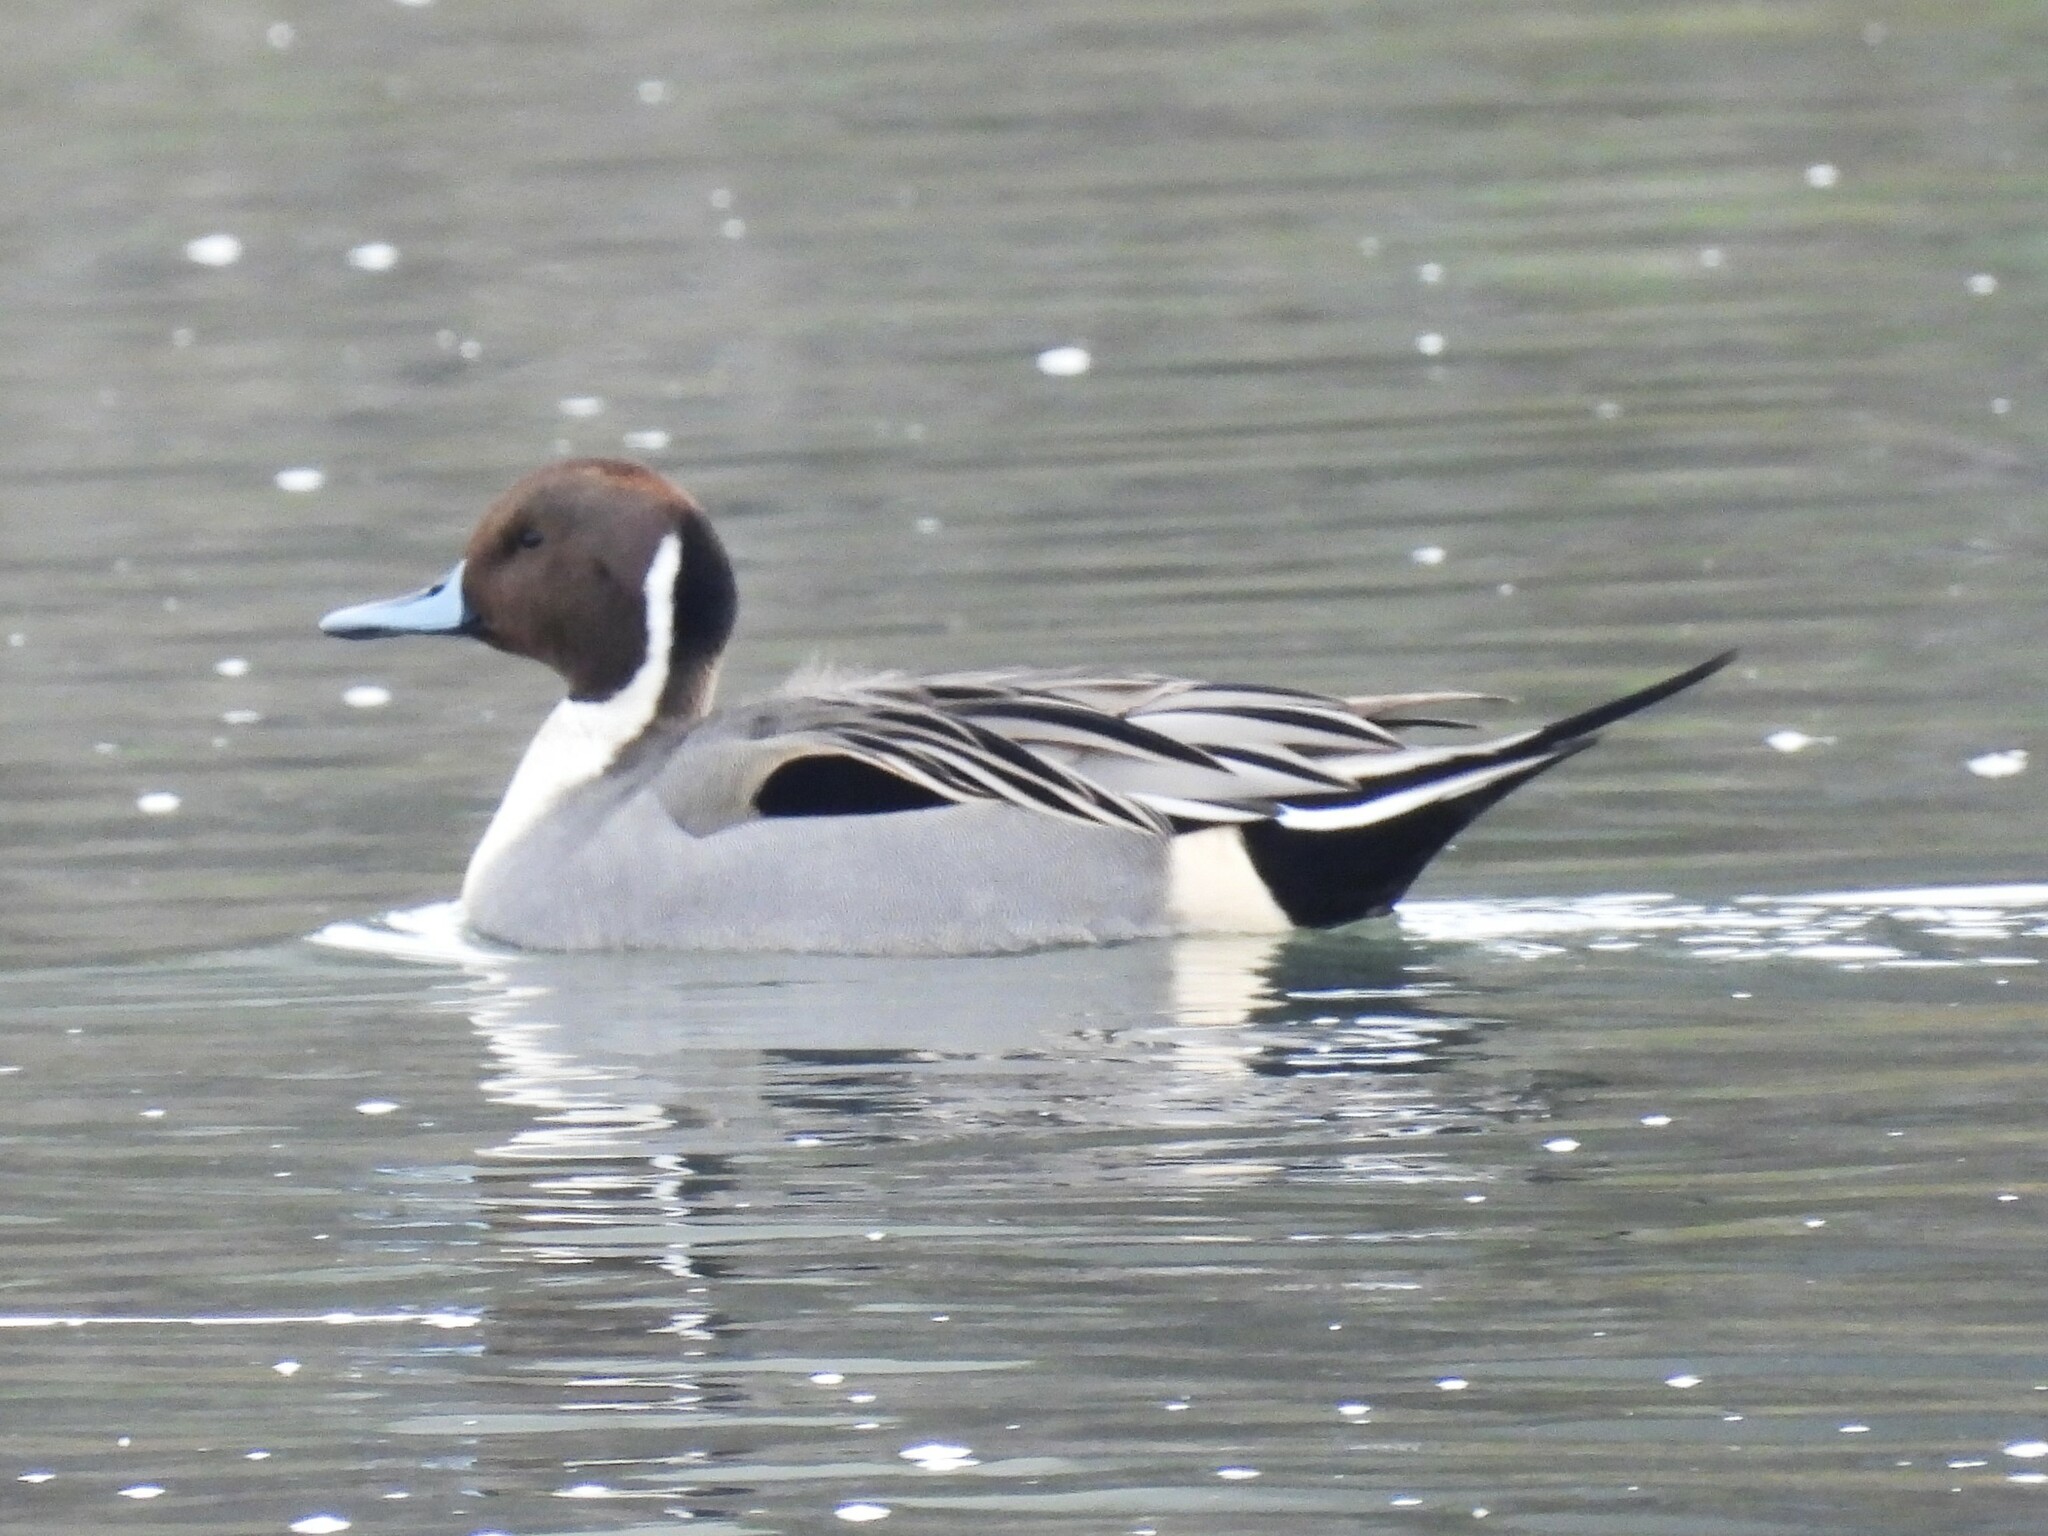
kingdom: Animalia
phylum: Chordata
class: Aves
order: Anseriformes
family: Anatidae
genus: Anas
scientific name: Anas acuta
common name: Northern pintail
